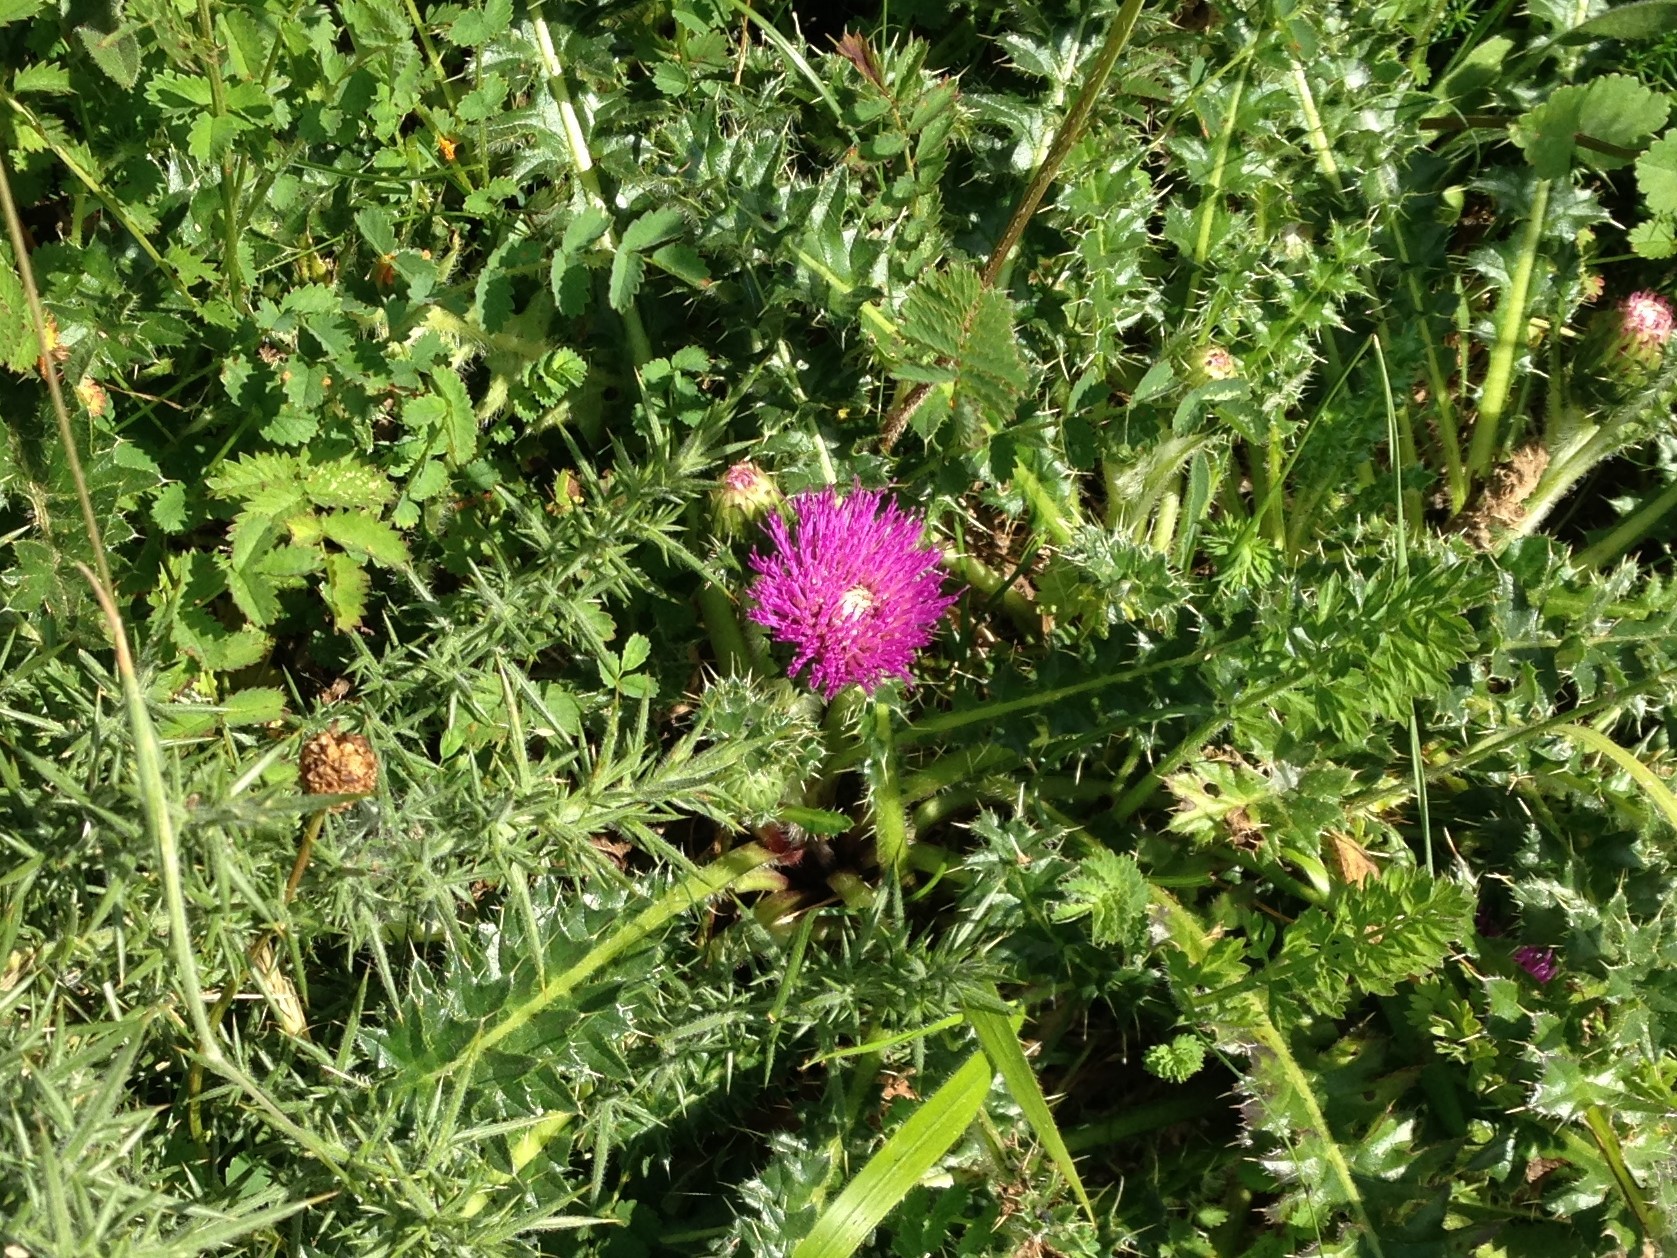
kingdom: Plantae
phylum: Tracheophyta
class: Magnoliopsida
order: Asterales
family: Asteraceae
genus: Cirsium
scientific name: Cirsium acaulon
